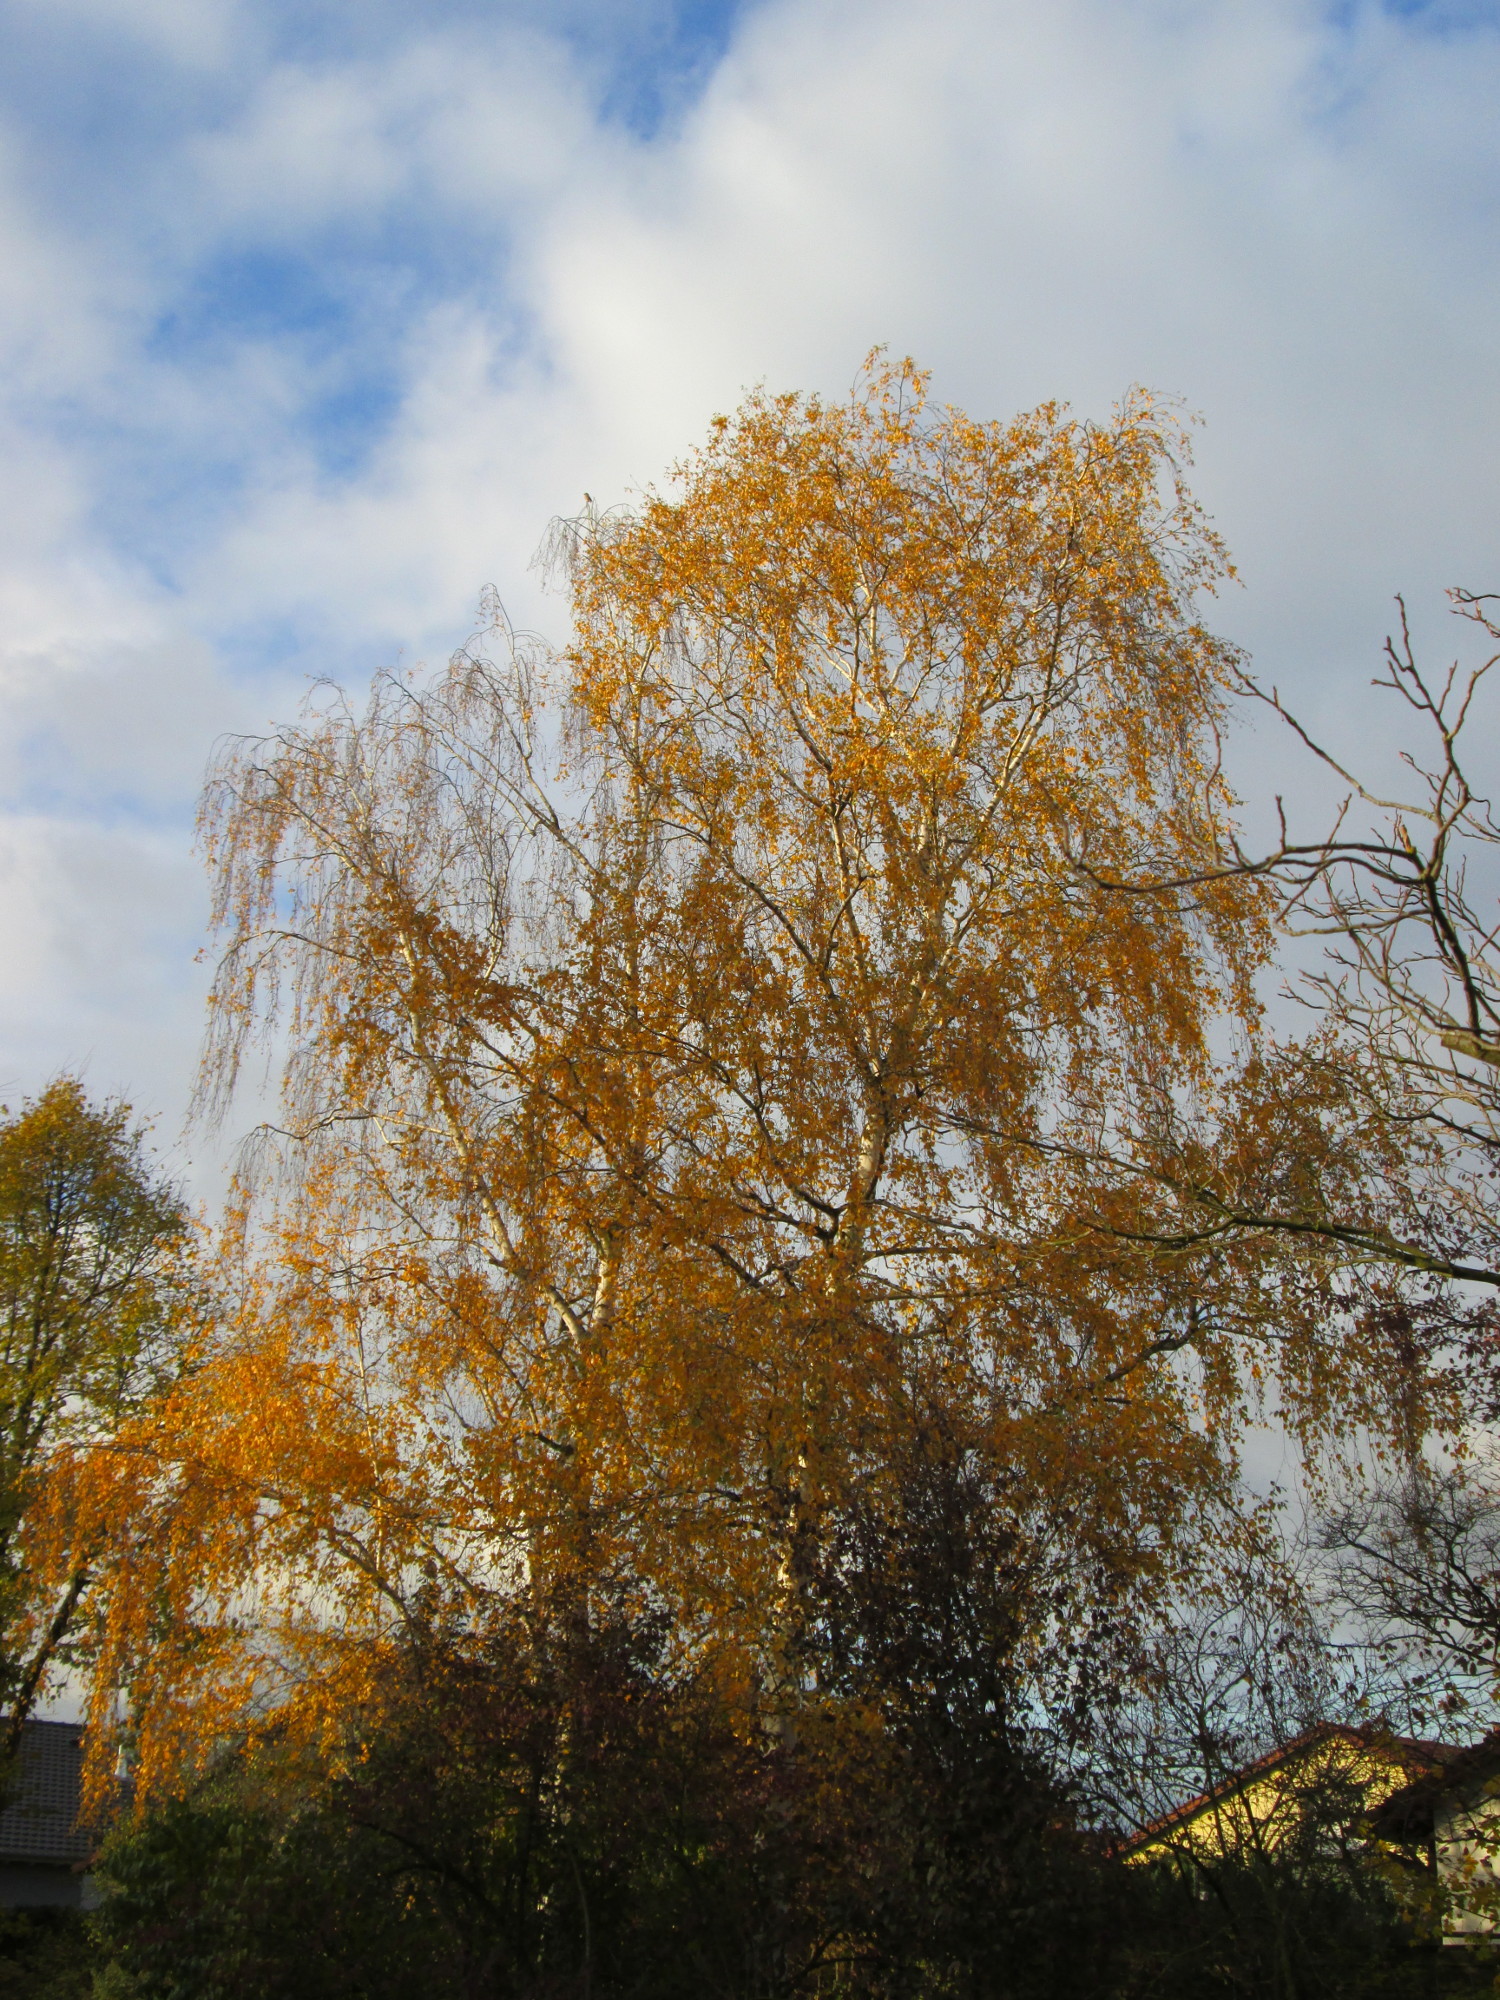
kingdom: Plantae
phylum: Tracheophyta
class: Magnoliopsida
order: Fagales
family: Betulaceae
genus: Betula
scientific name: Betula pendula
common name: Silver birch
